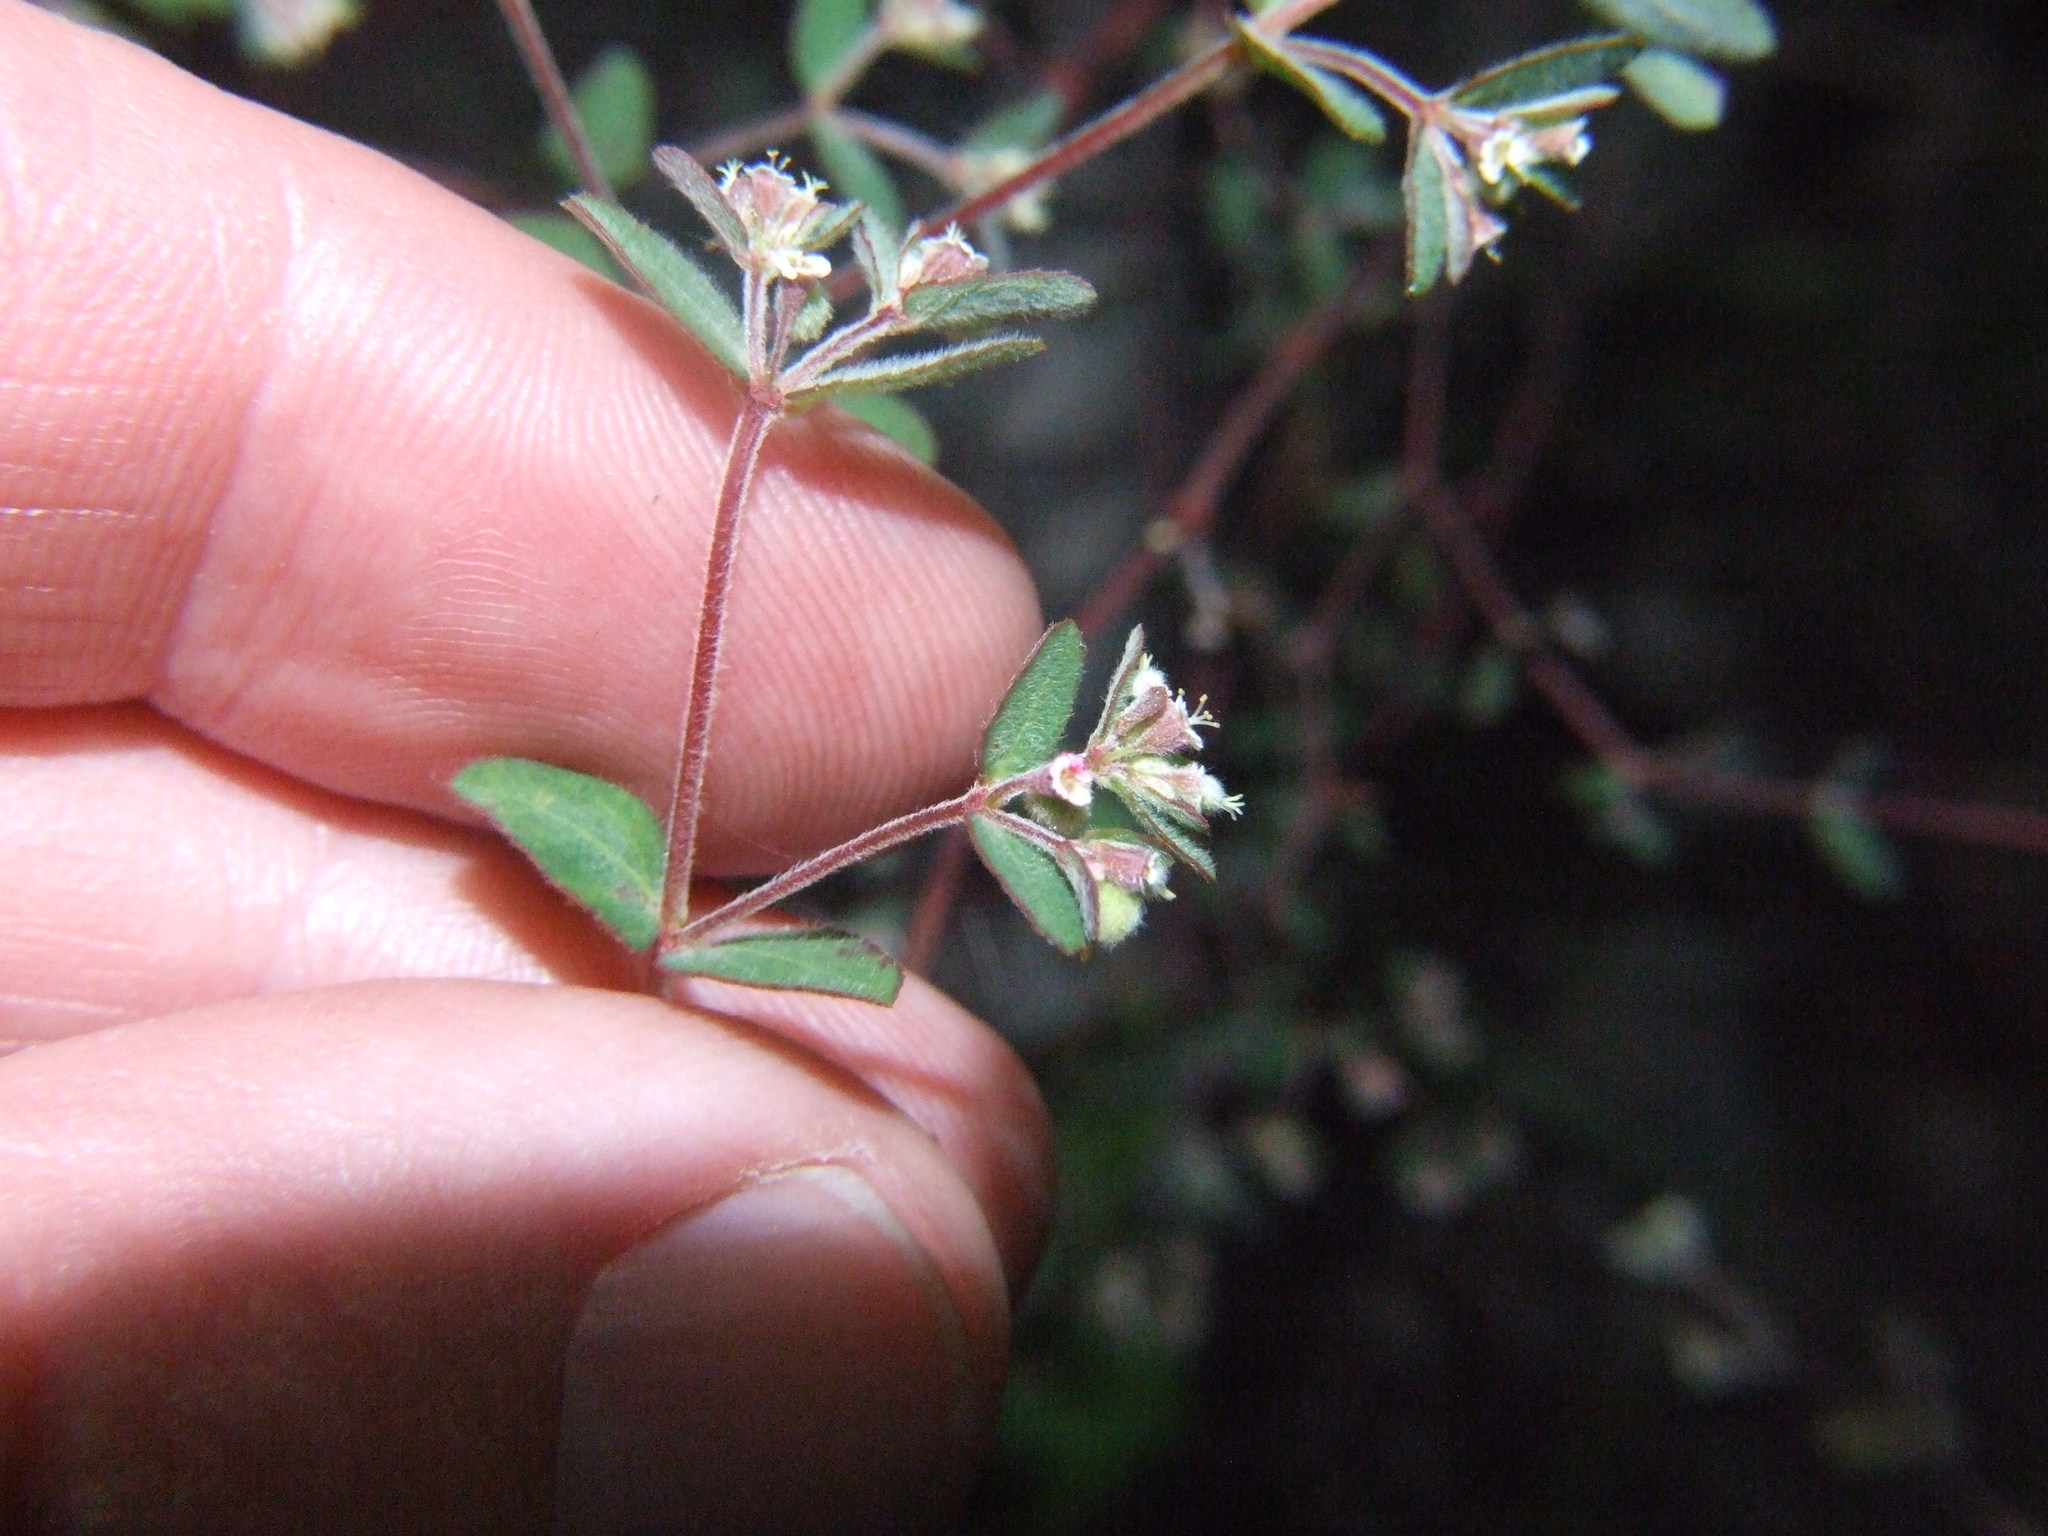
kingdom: Plantae
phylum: Tracheophyta
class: Magnoliopsida
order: Malpighiales
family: Euphorbiaceae
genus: Euphorbia
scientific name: Euphorbia lasiocarpa
